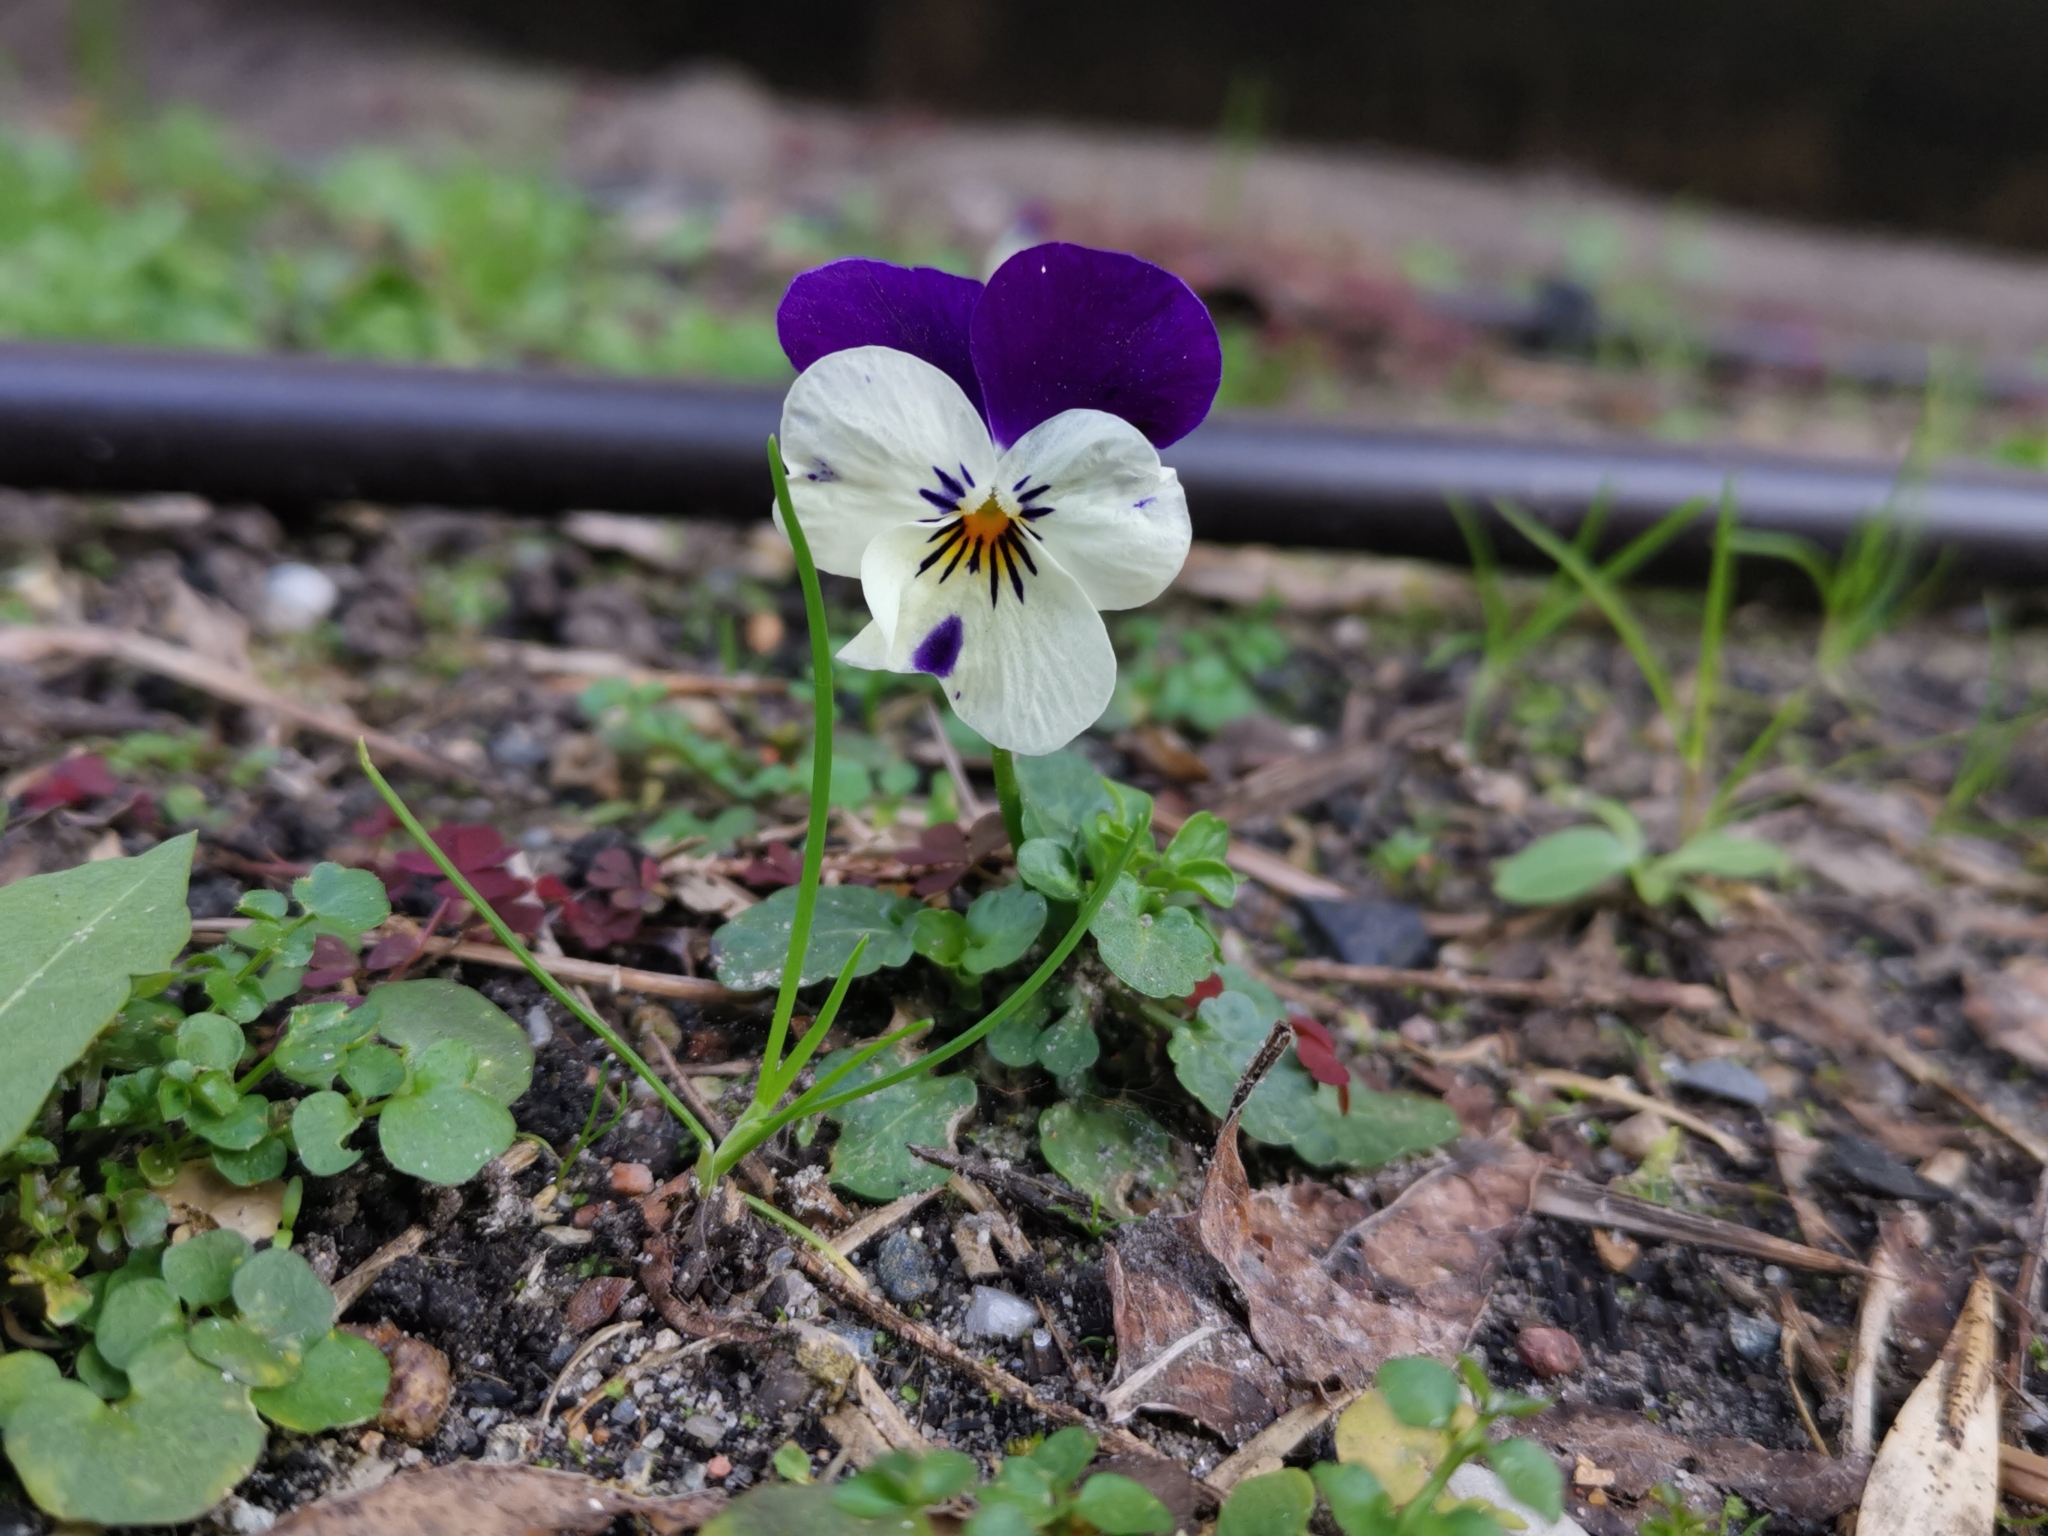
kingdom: Plantae
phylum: Tracheophyta
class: Magnoliopsida
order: Malpighiales
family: Violaceae
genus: Viola
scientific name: Viola williamsii
